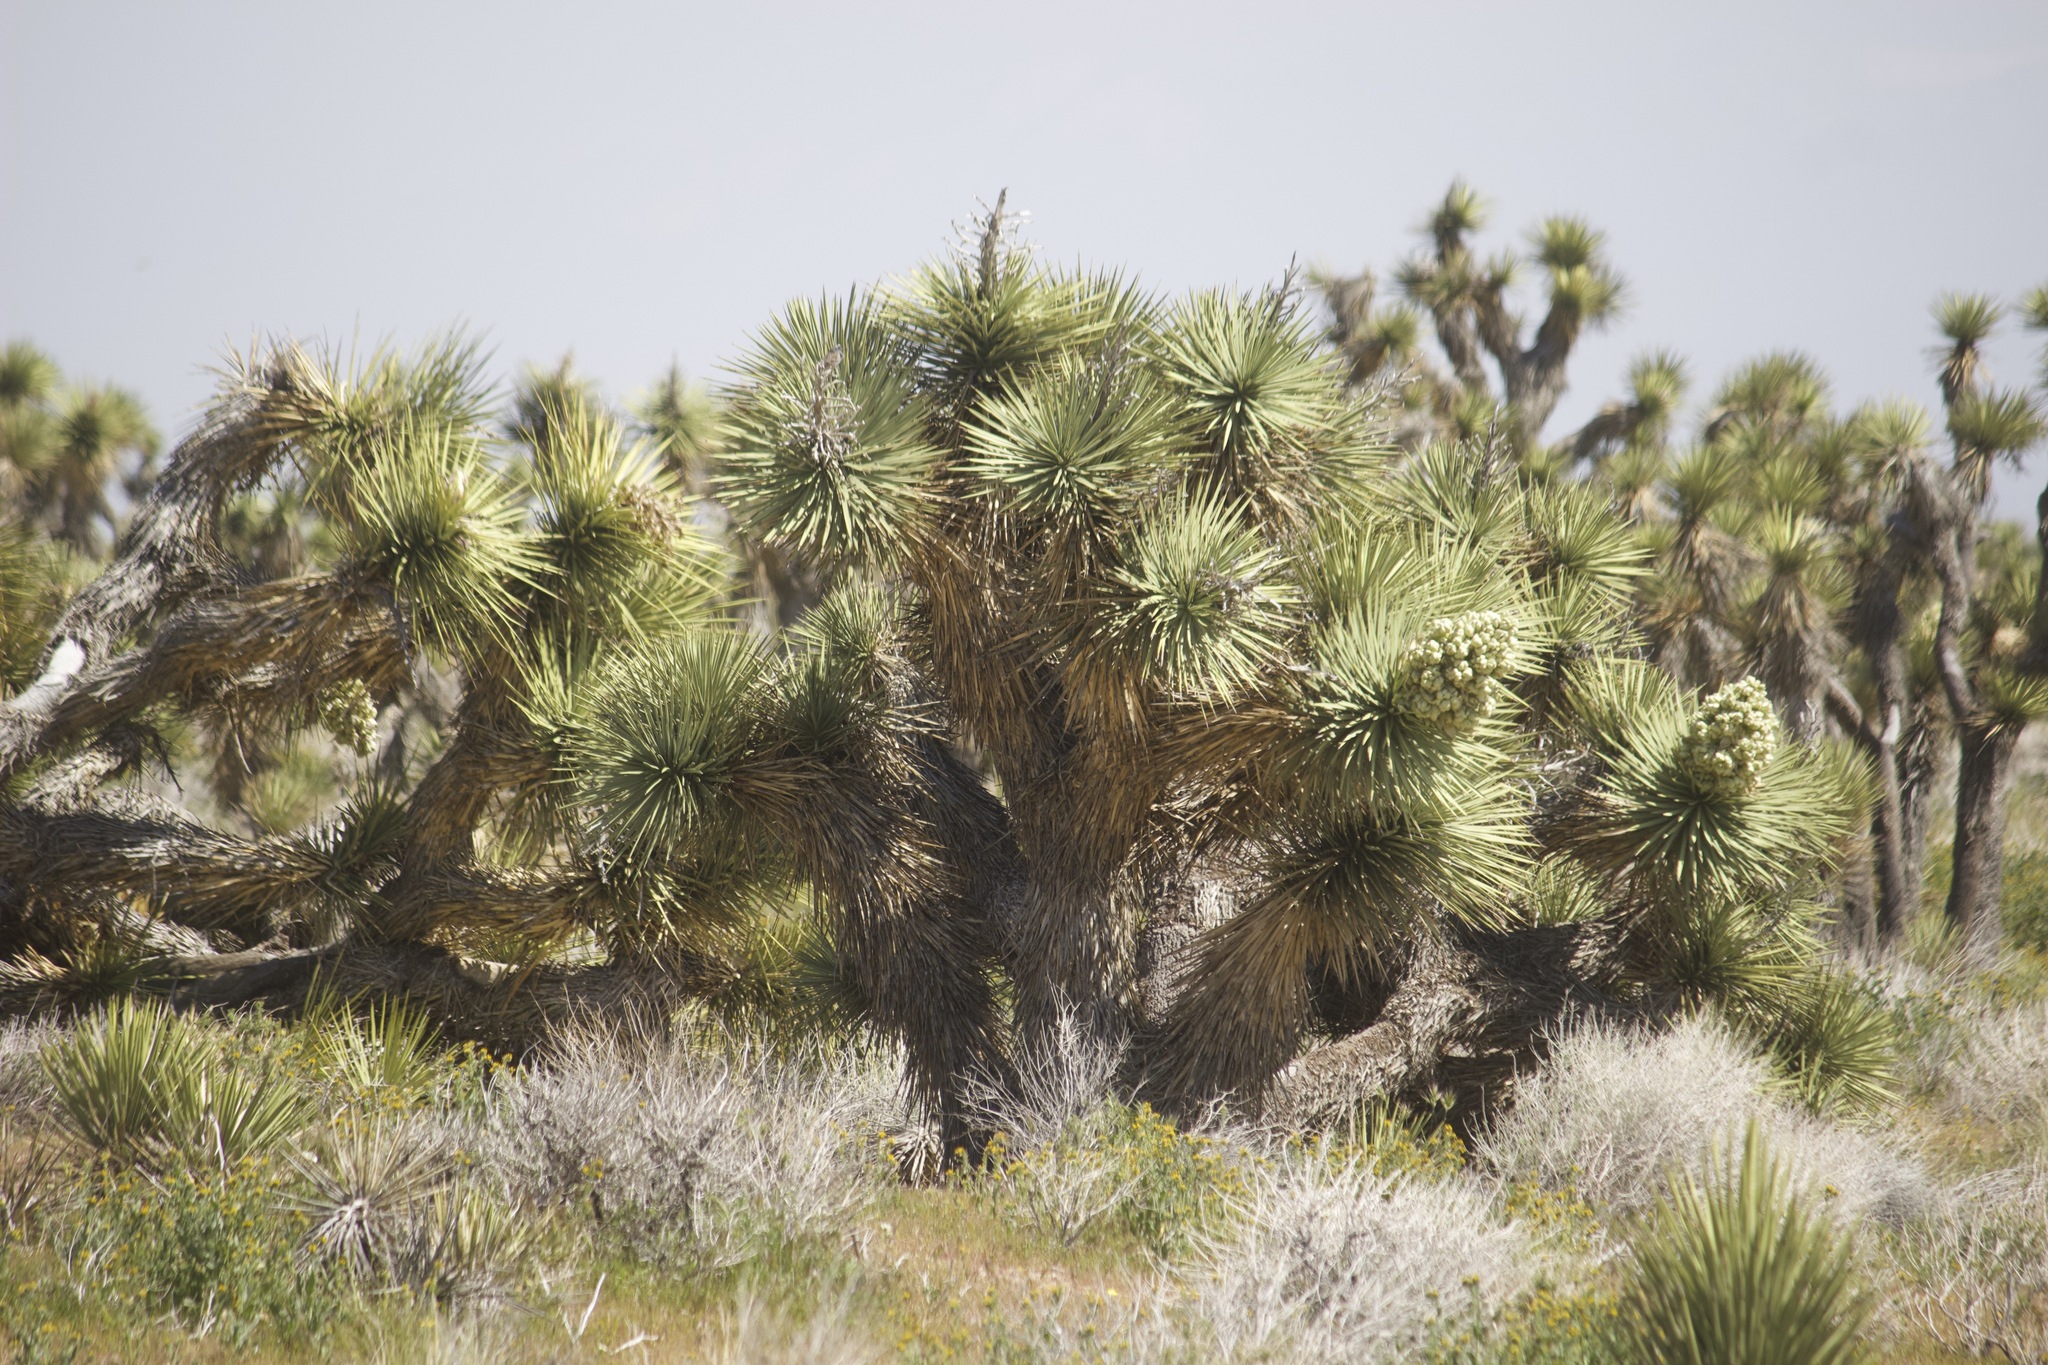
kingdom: Plantae
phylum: Tracheophyta
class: Liliopsida
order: Asparagales
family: Asparagaceae
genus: Yucca
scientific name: Yucca brevifolia
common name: Joshua tree
